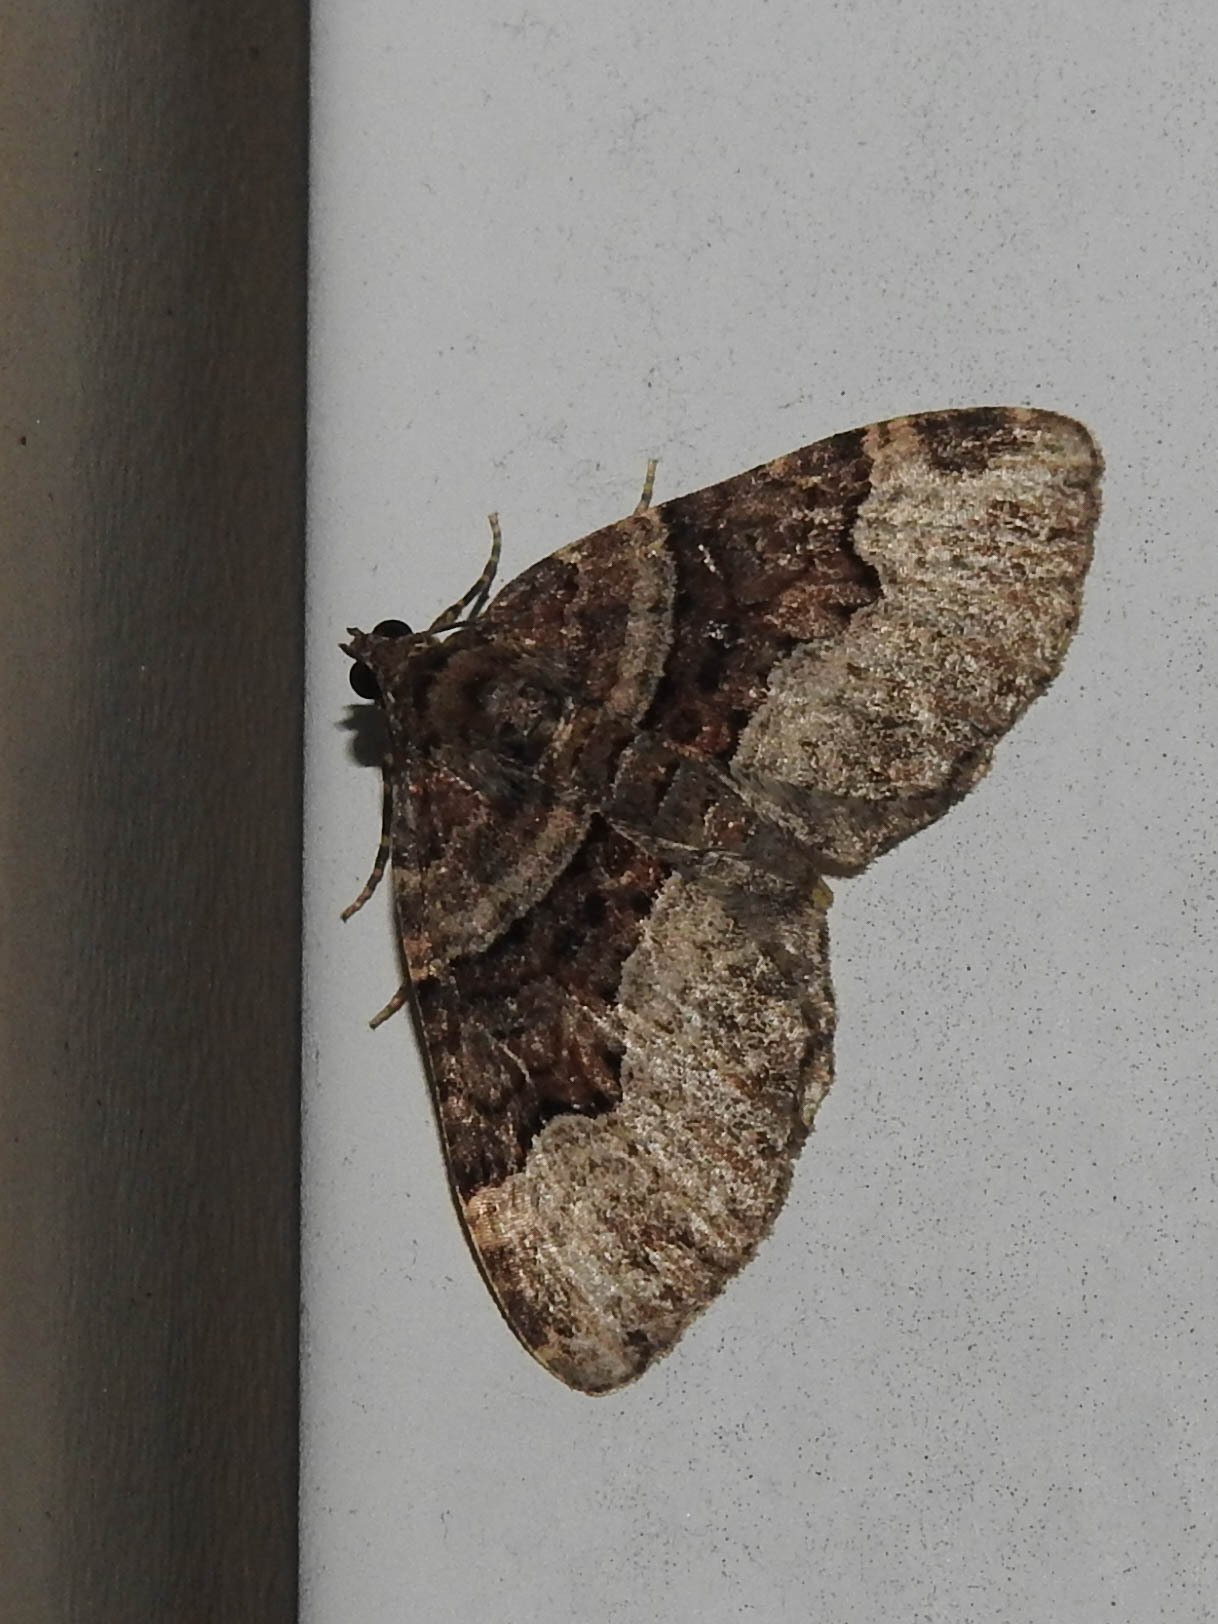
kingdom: Animalia
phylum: Arthropoda
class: Insecta
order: Lepidoptera
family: Geometridae
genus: Xanthorhoe
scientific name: Xanthorhoe lacustrata
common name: Toothed brown carpet
